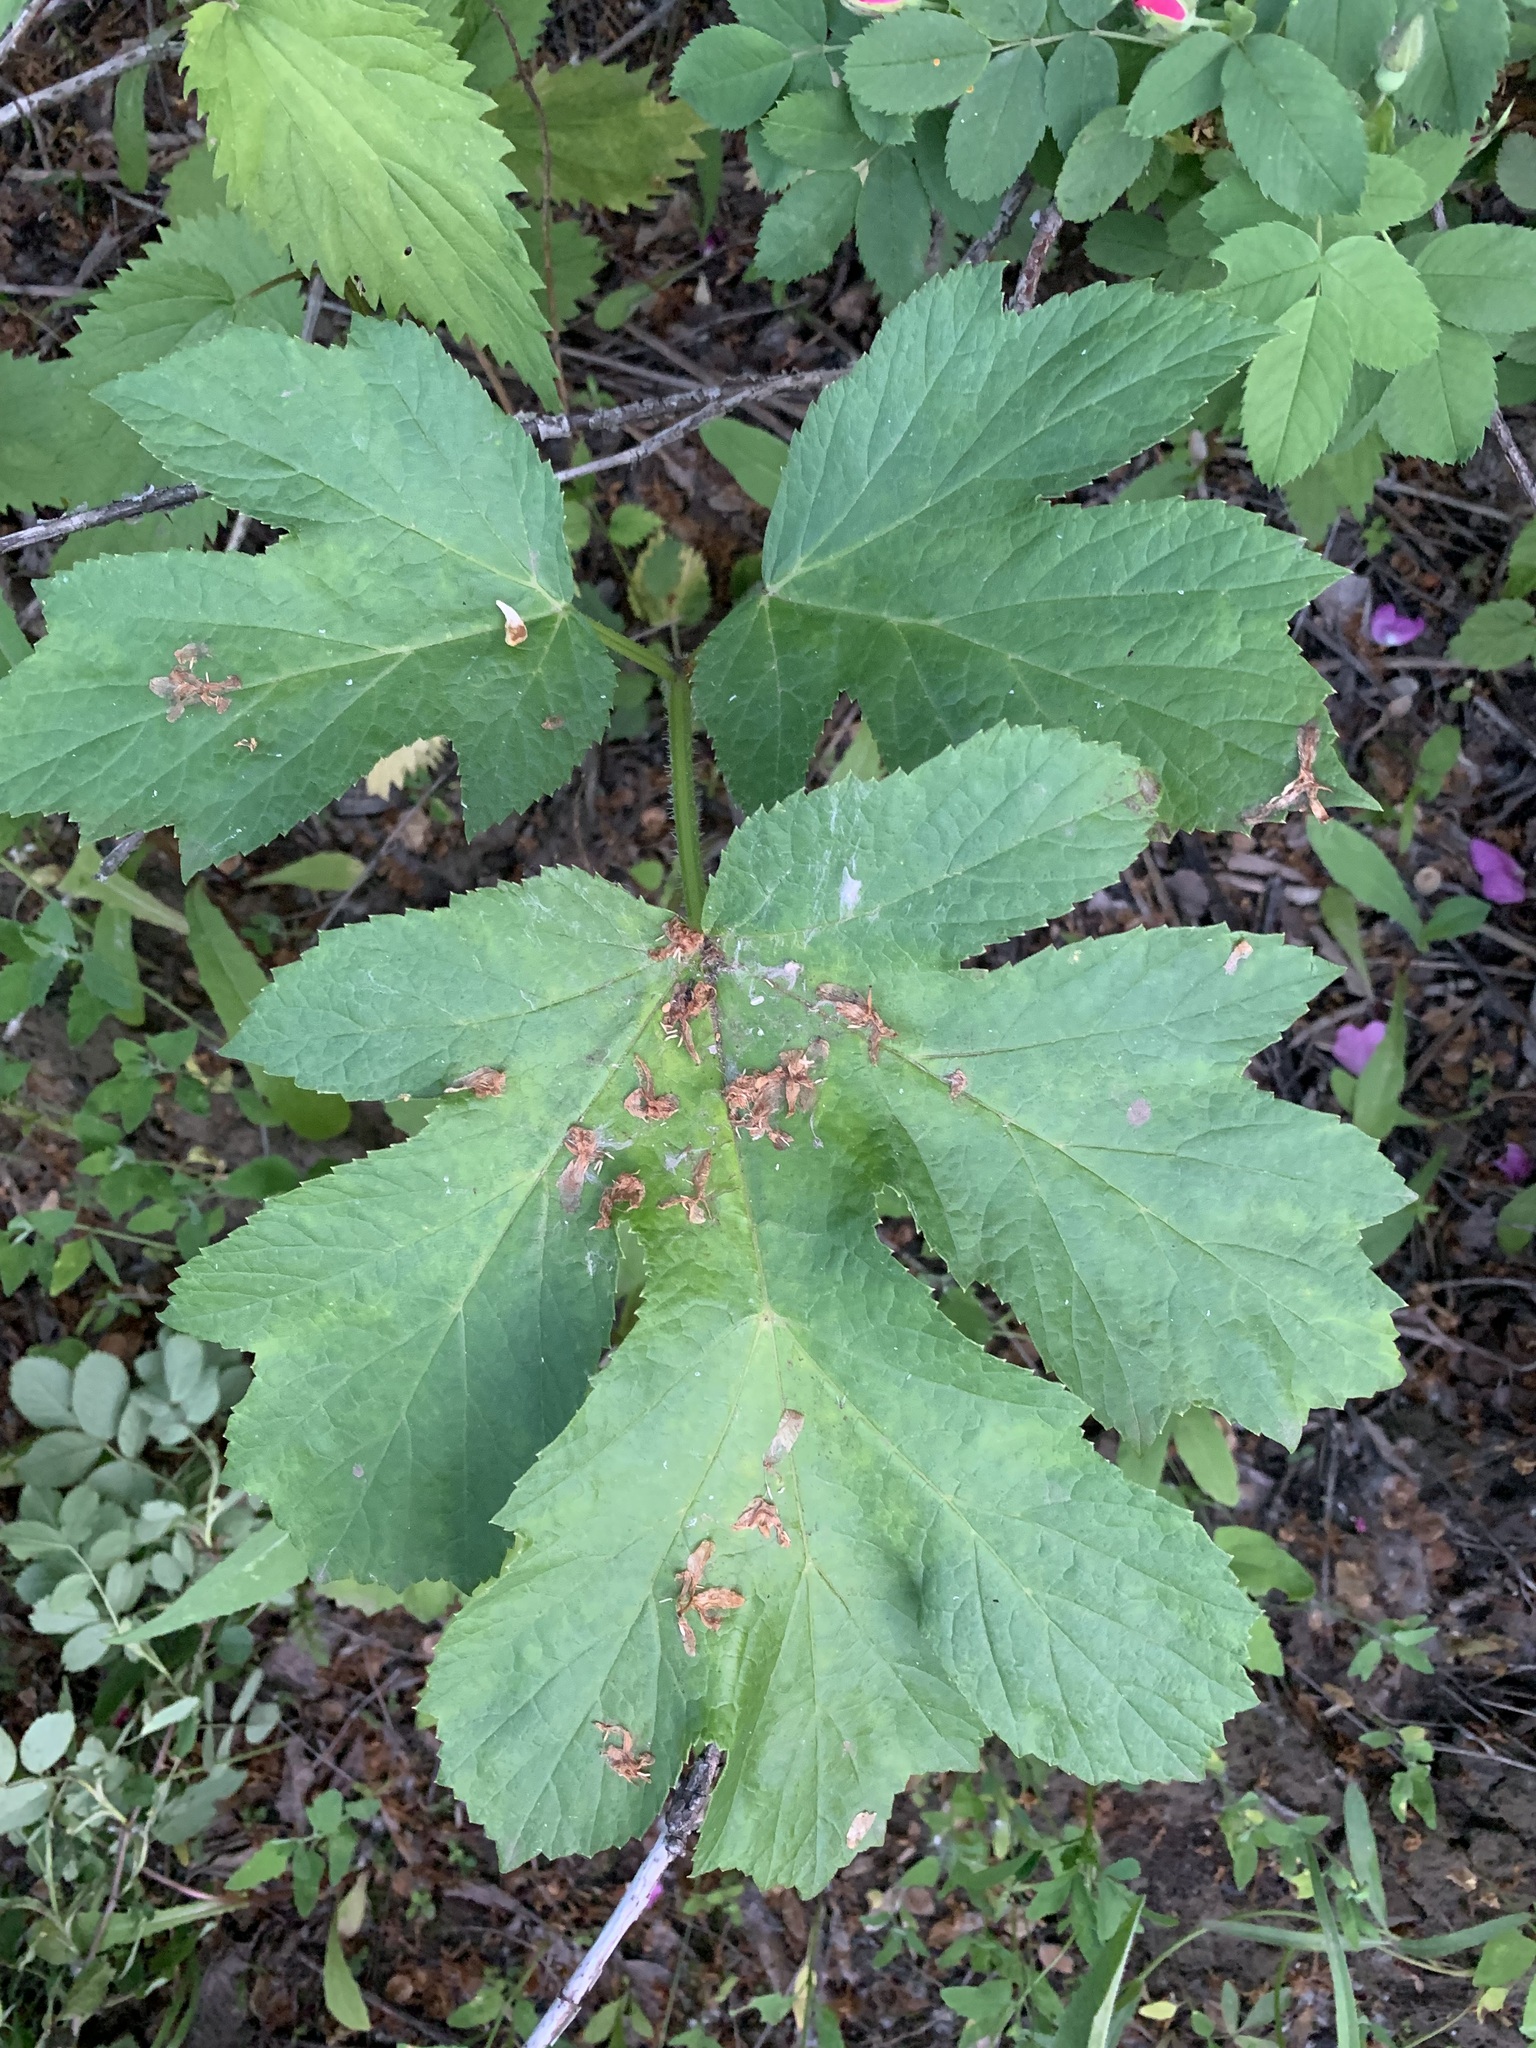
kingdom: Plantae
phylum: Tracheophyta
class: Magnoliopsida
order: Apiales
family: Apiaceae
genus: Heracleum
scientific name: Heracleum sphondylium
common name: Hogweed
